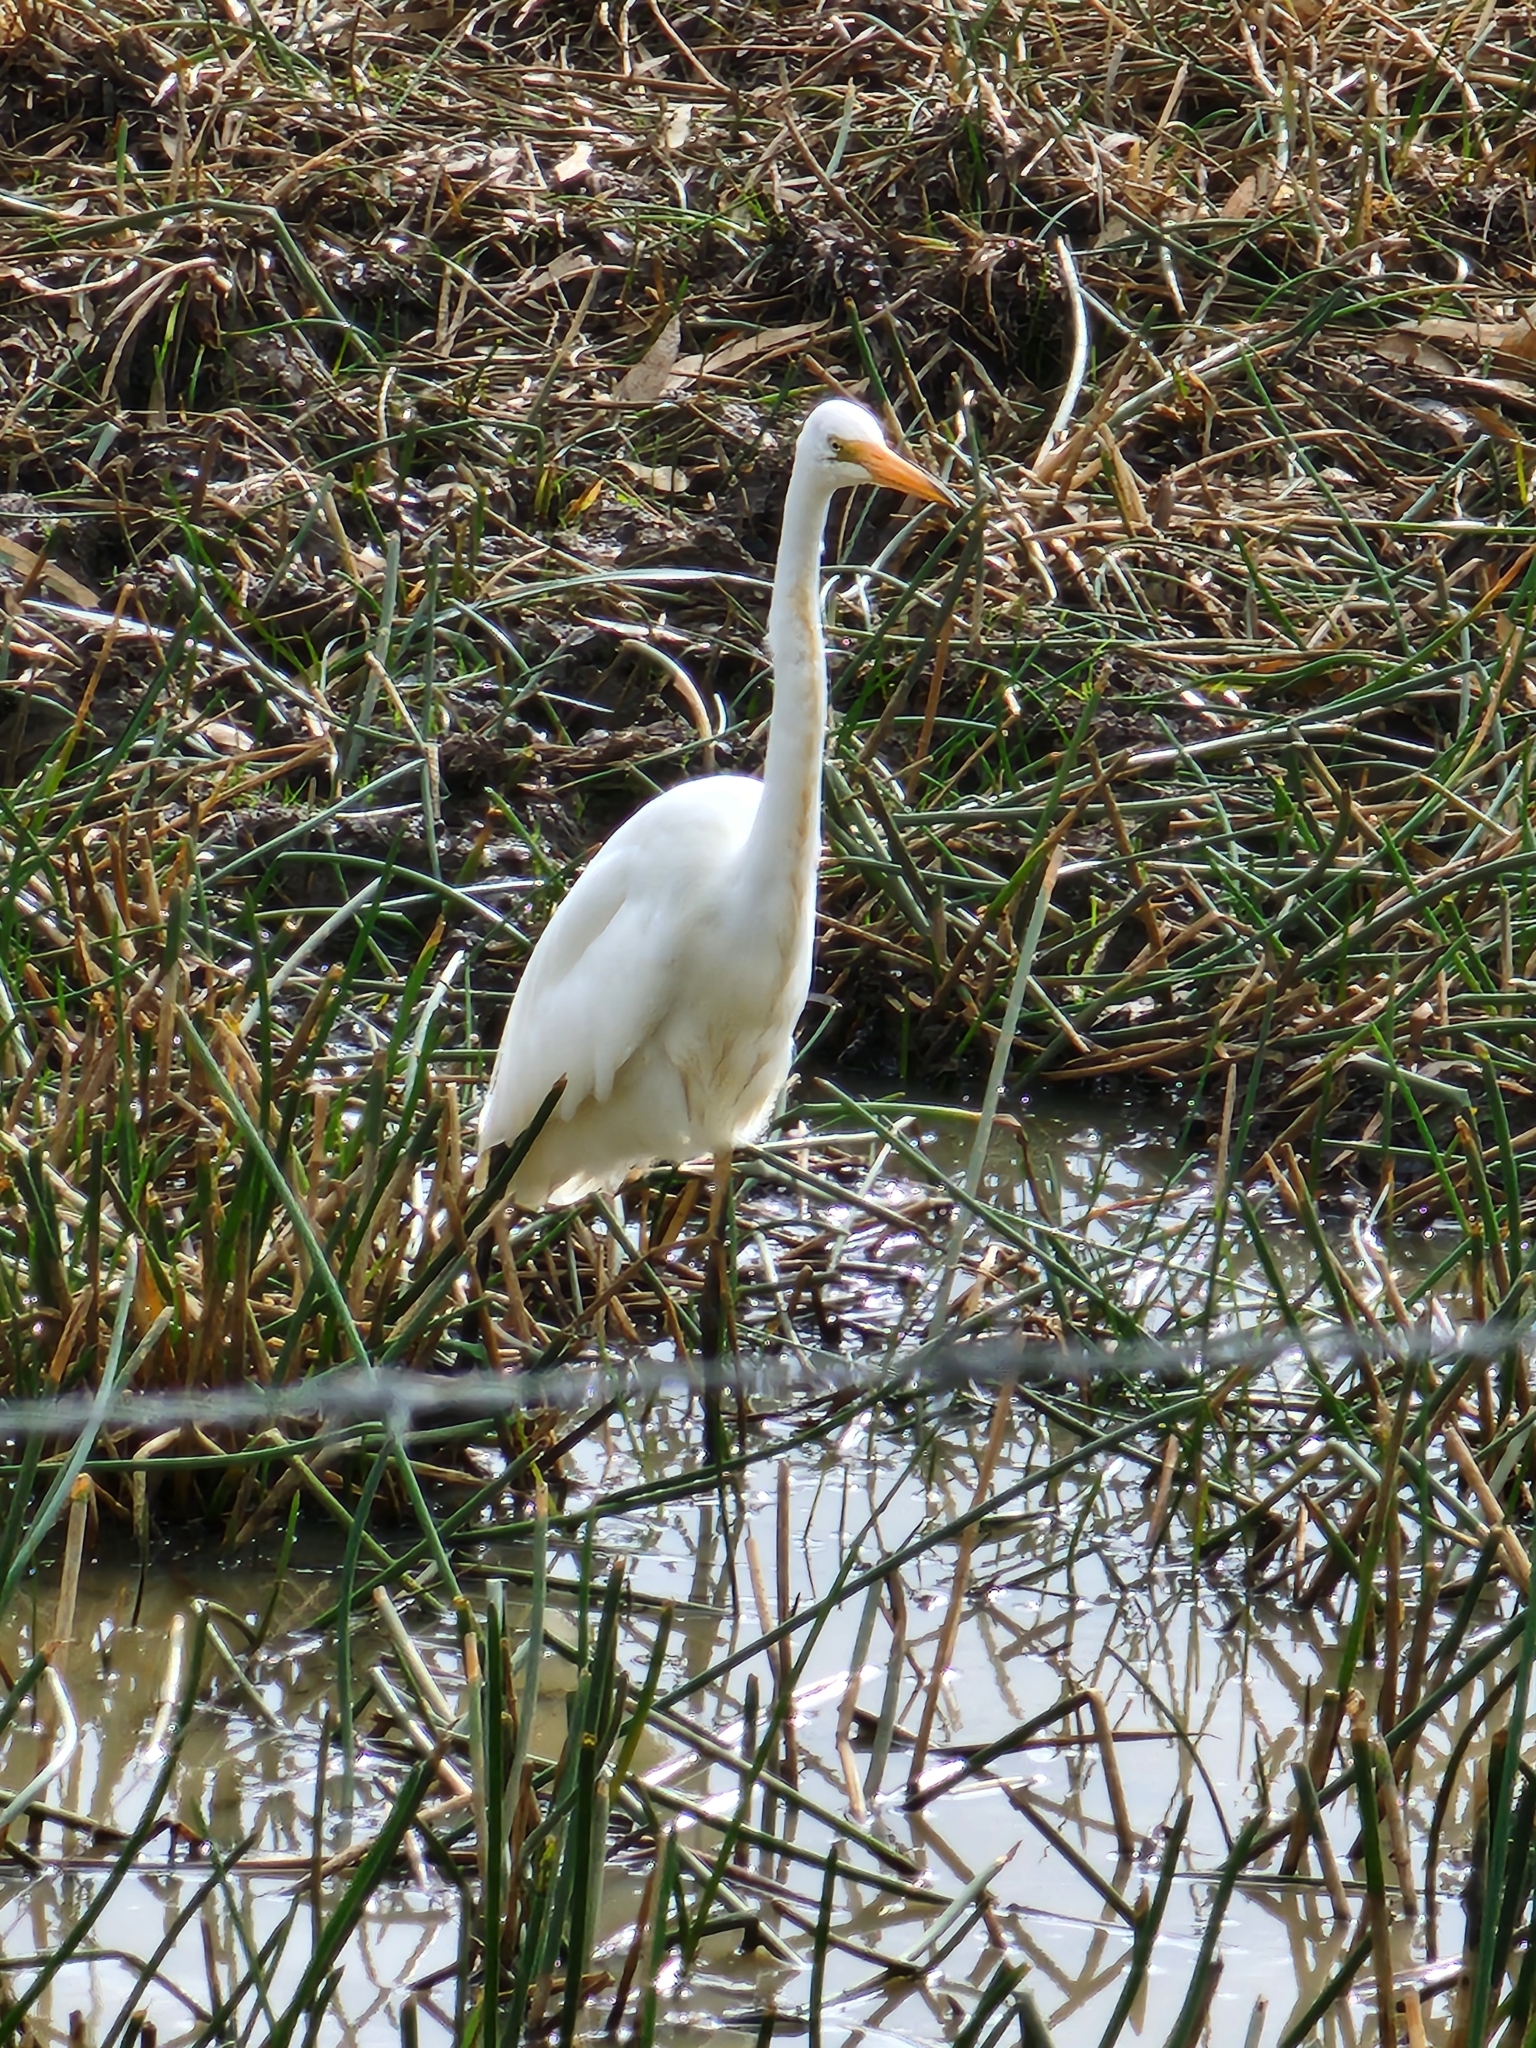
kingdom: Animalia
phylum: Chordata
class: Aves
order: Pelecaniformes
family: Ardeidae
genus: Ardea
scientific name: Ardea alba
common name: Great egret
